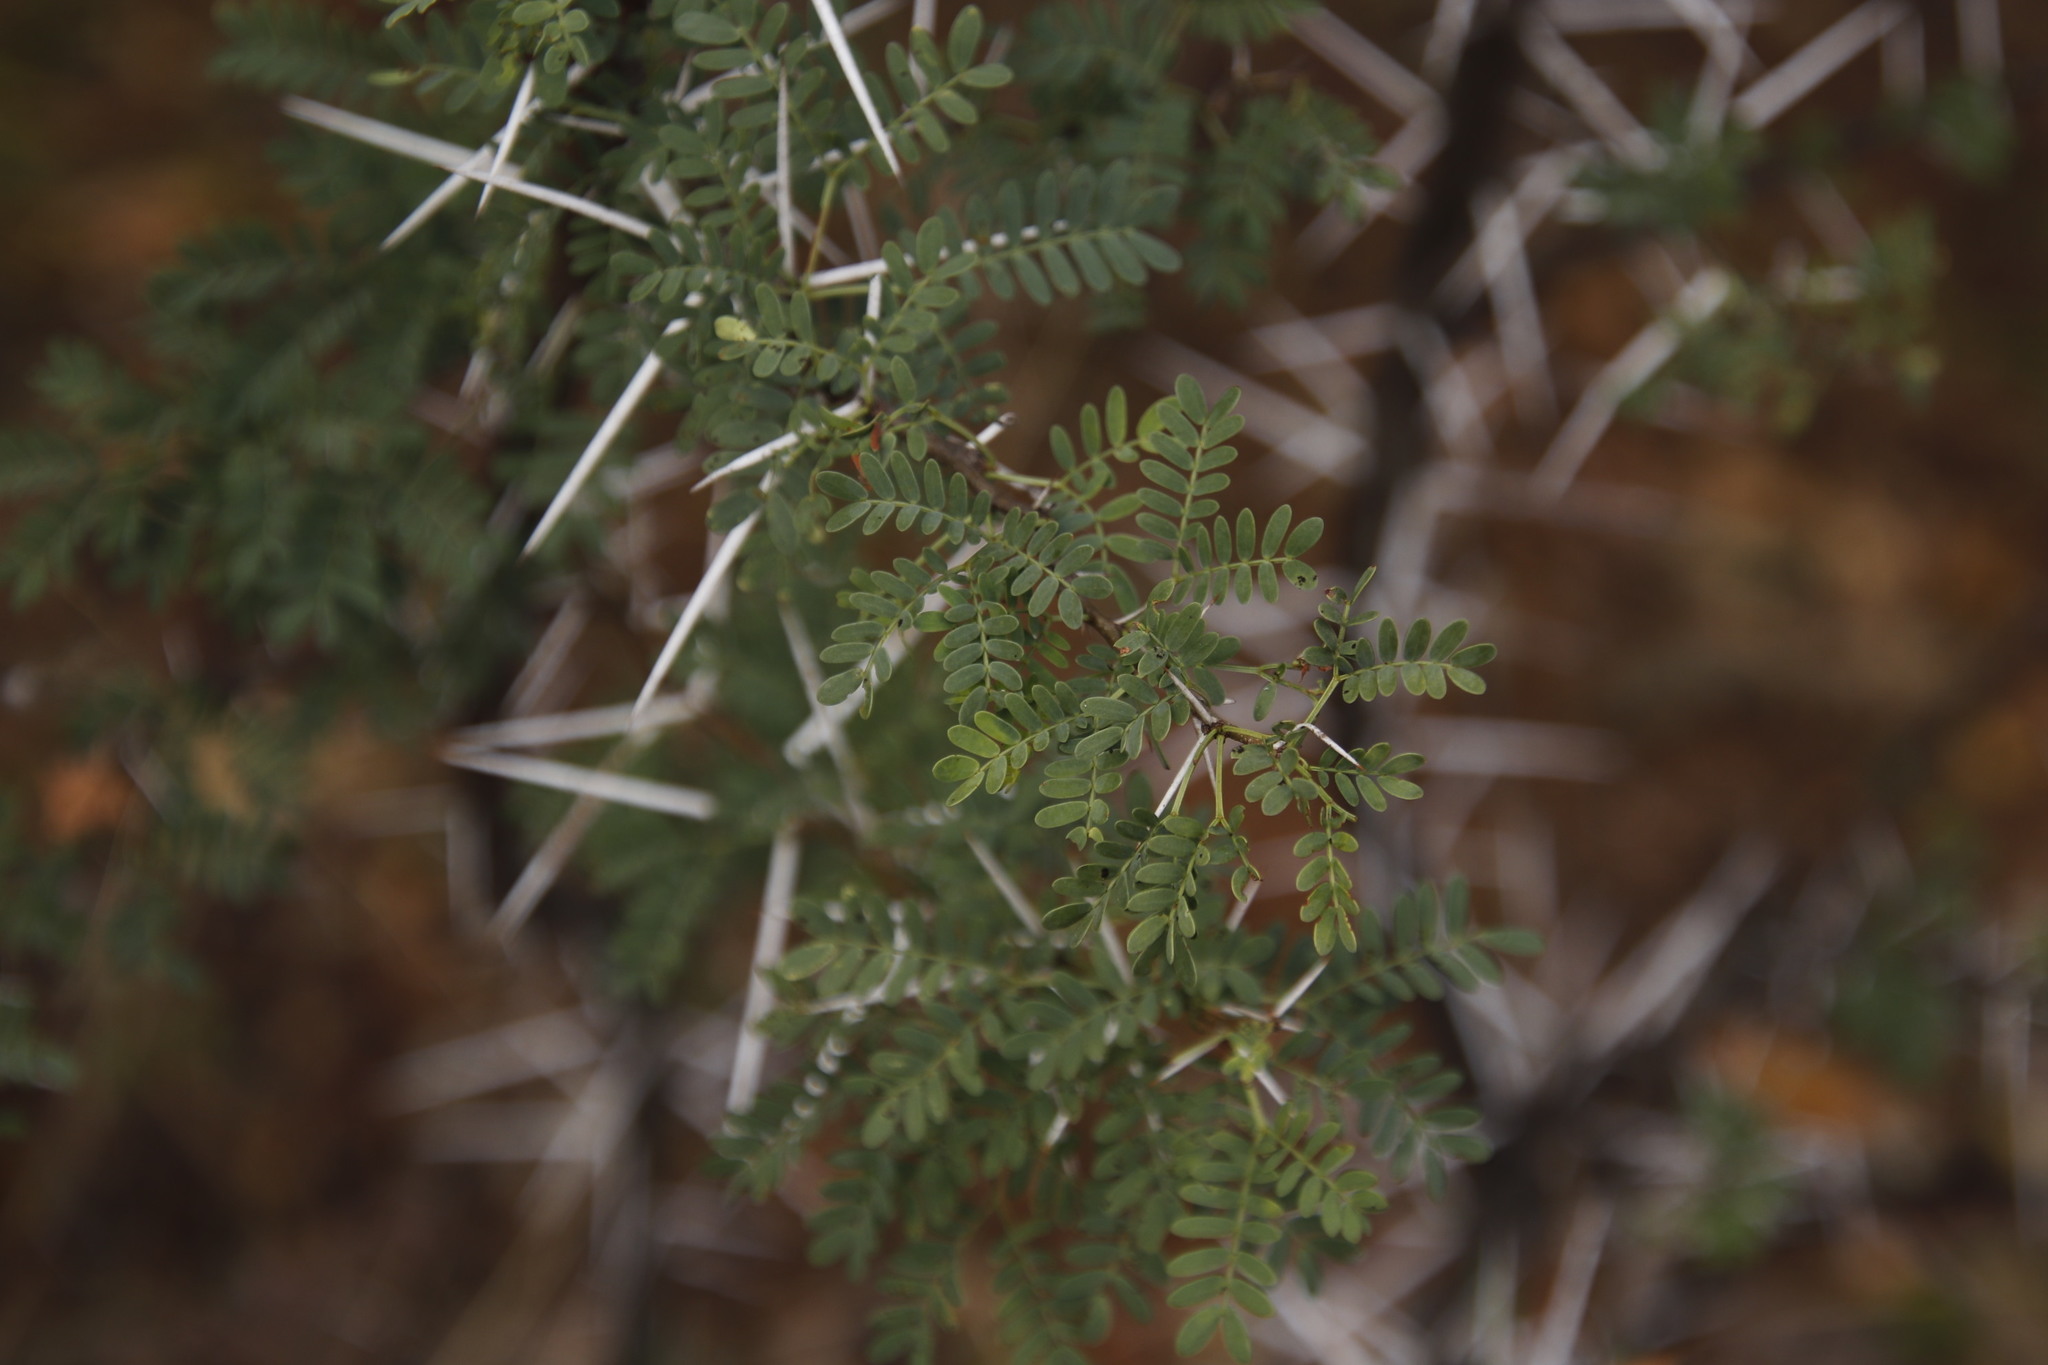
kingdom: Plantae
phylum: Tracheophyta
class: Magnoliopsida
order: Fabales
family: Fabaceae
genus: Vachellia
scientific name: Vachellia karroo
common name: Sweet thorn
